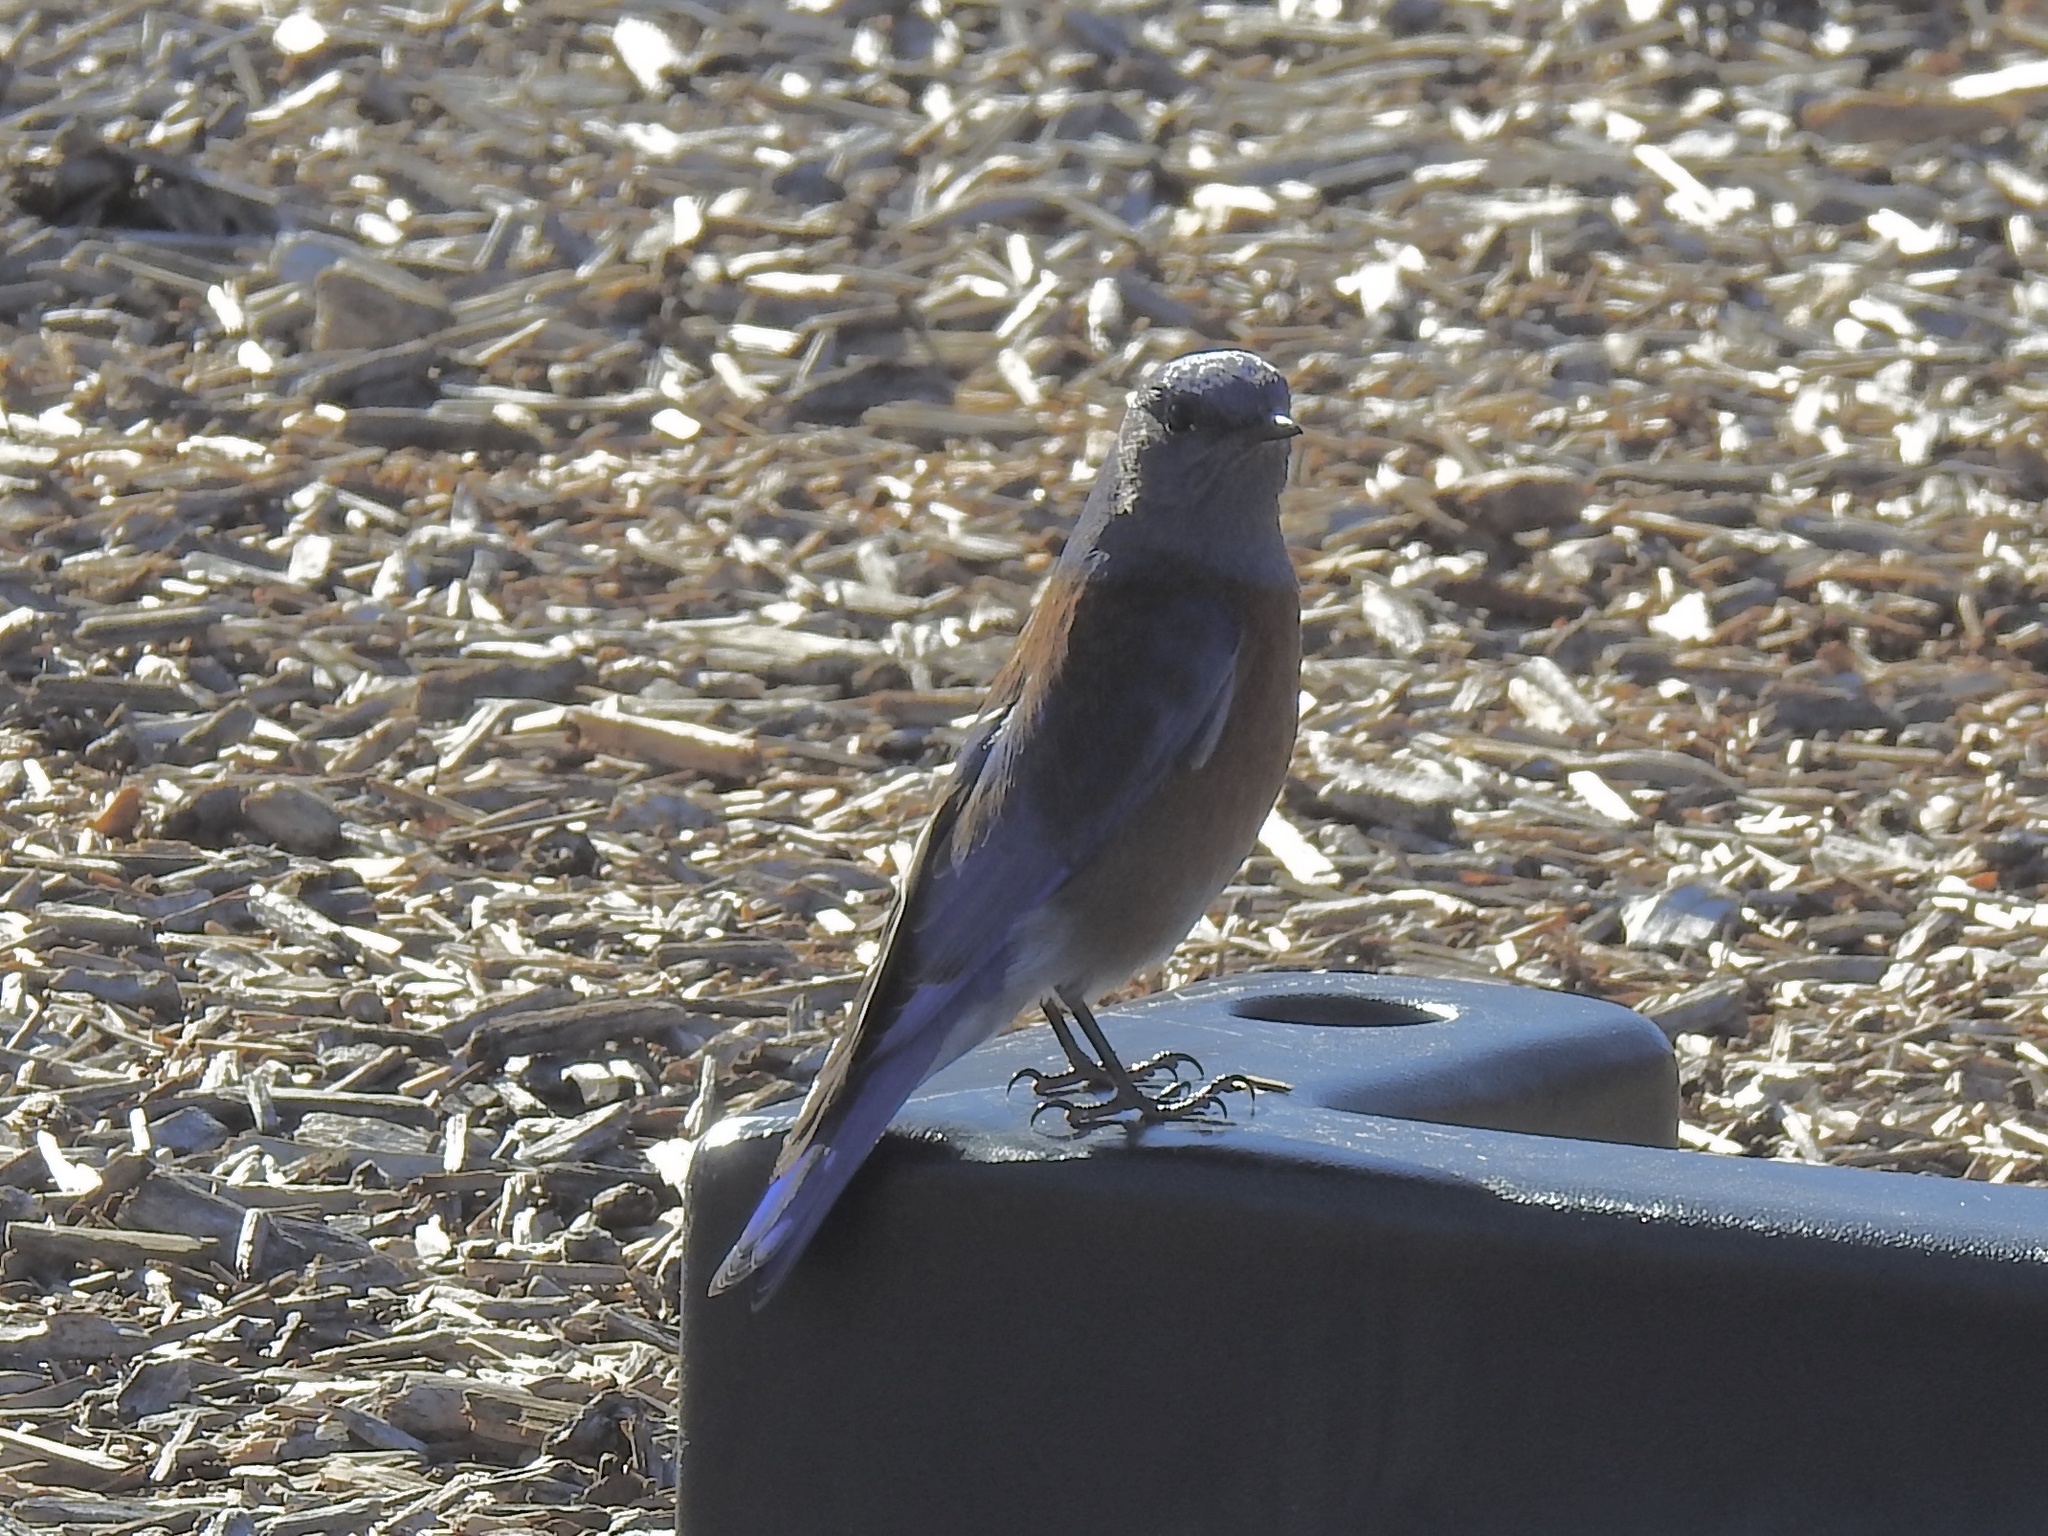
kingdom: Animalia
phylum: Chordata
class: Aves
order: Passeriformes
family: Turdidae
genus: Sialia
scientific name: Sialia mexicana
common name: Western bluebird
